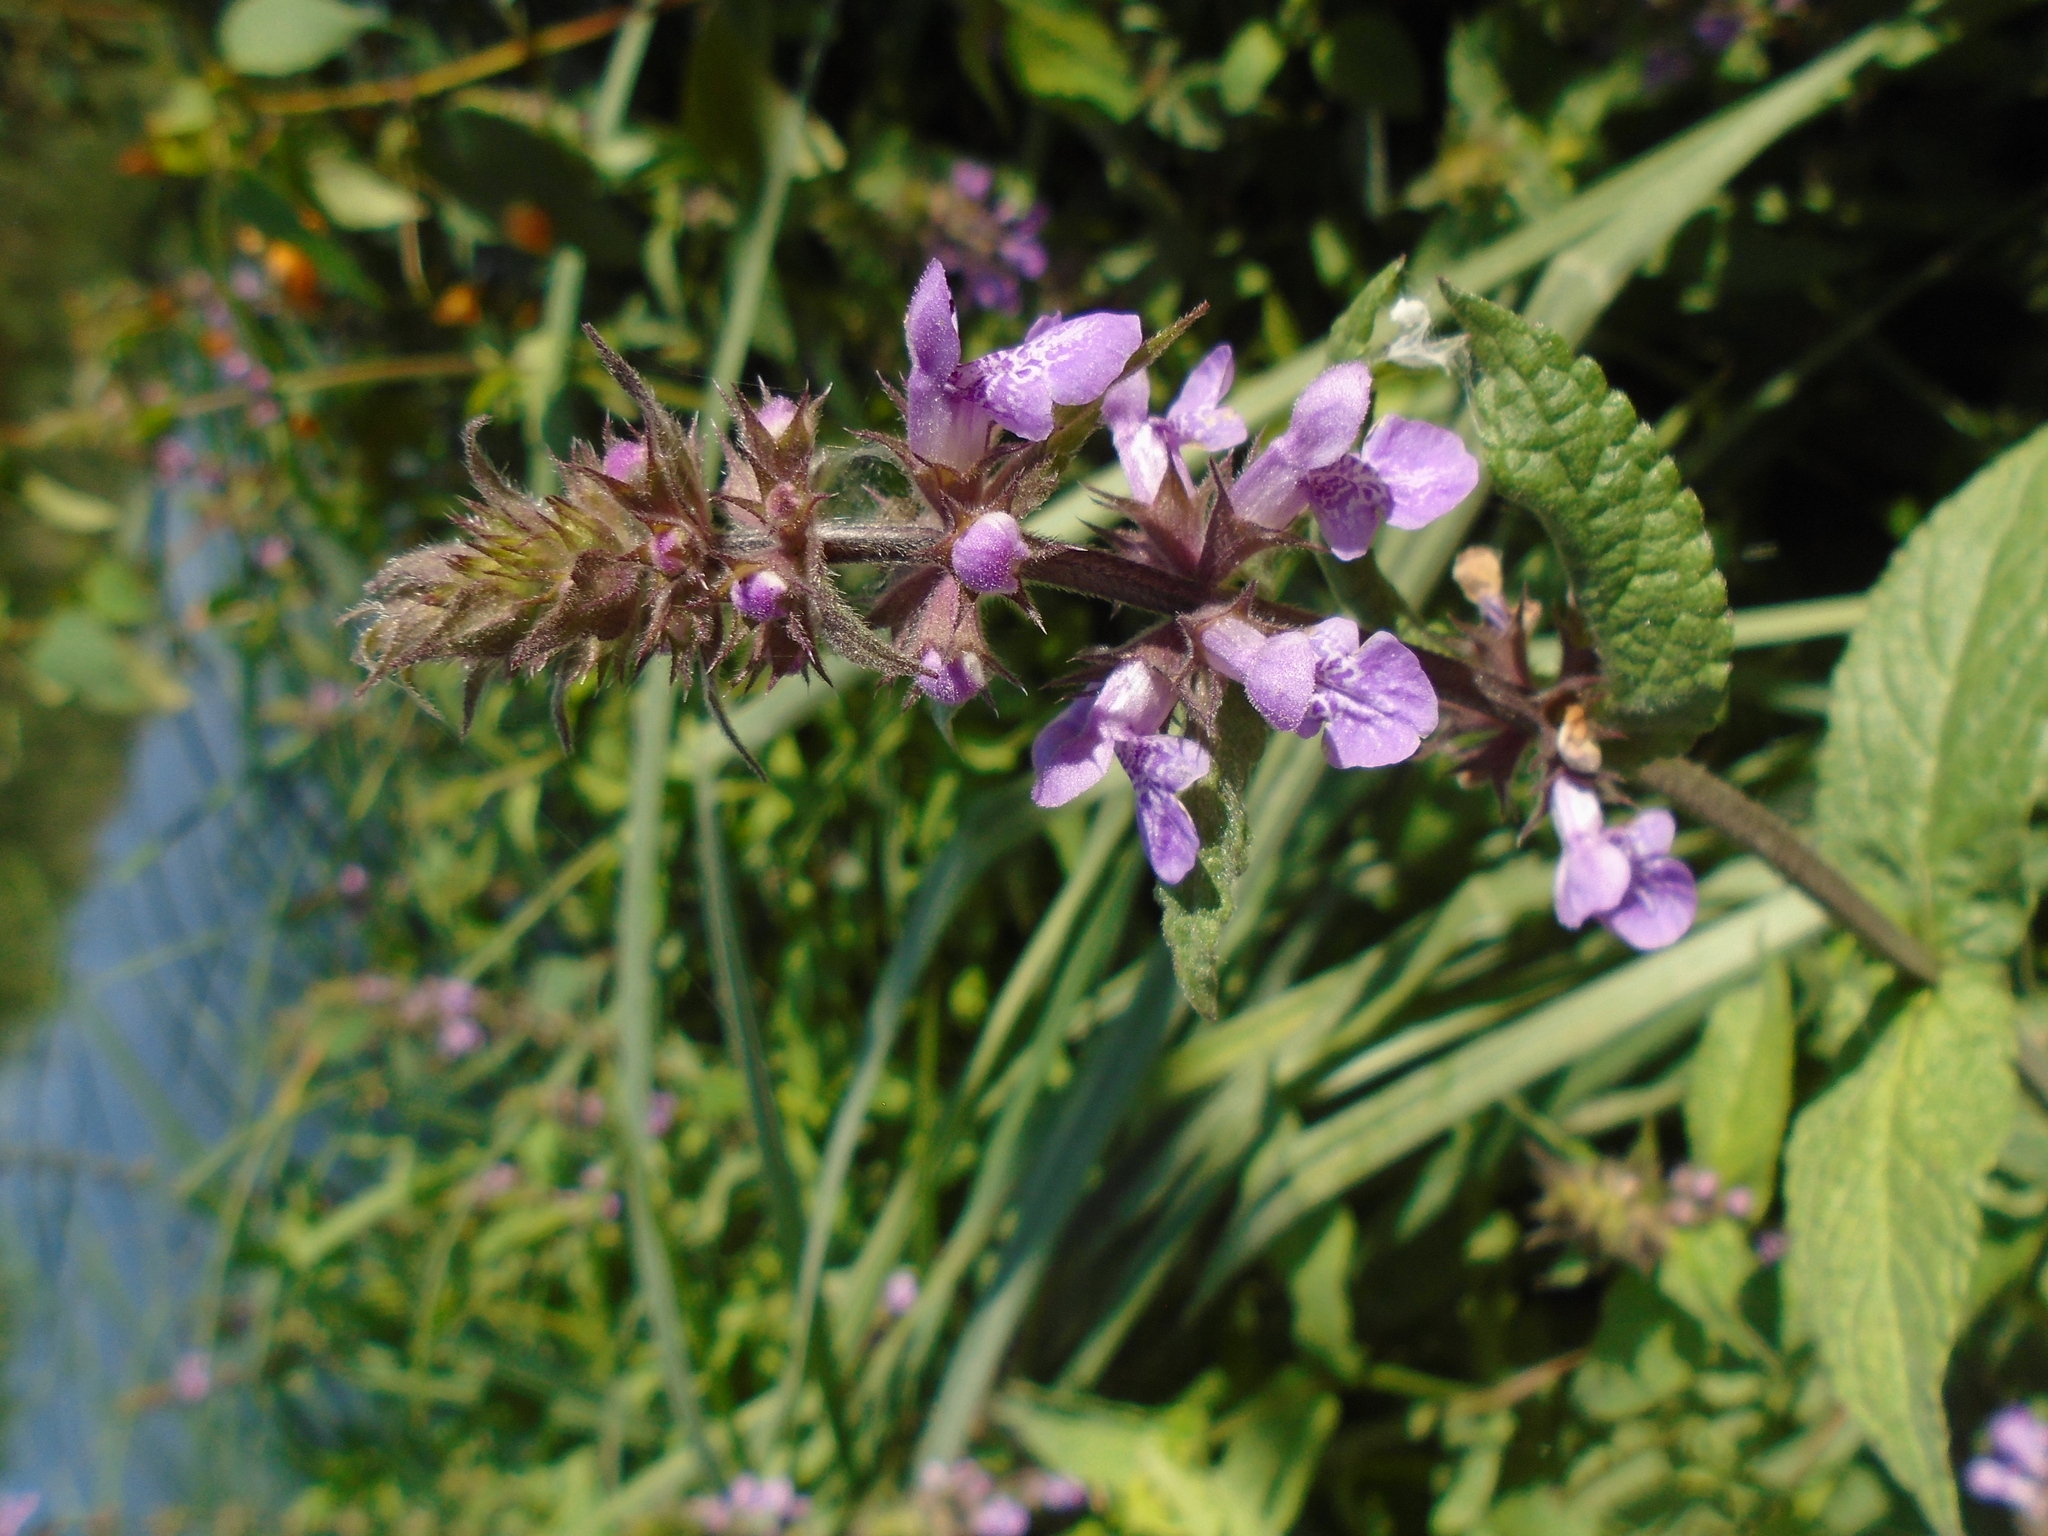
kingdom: Plantae
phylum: Tracheophyta
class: Magnoliopsida
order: Lamiales
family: Lamiaceae
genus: Stachys
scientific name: Stachys palustris
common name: Marsh woundwort
